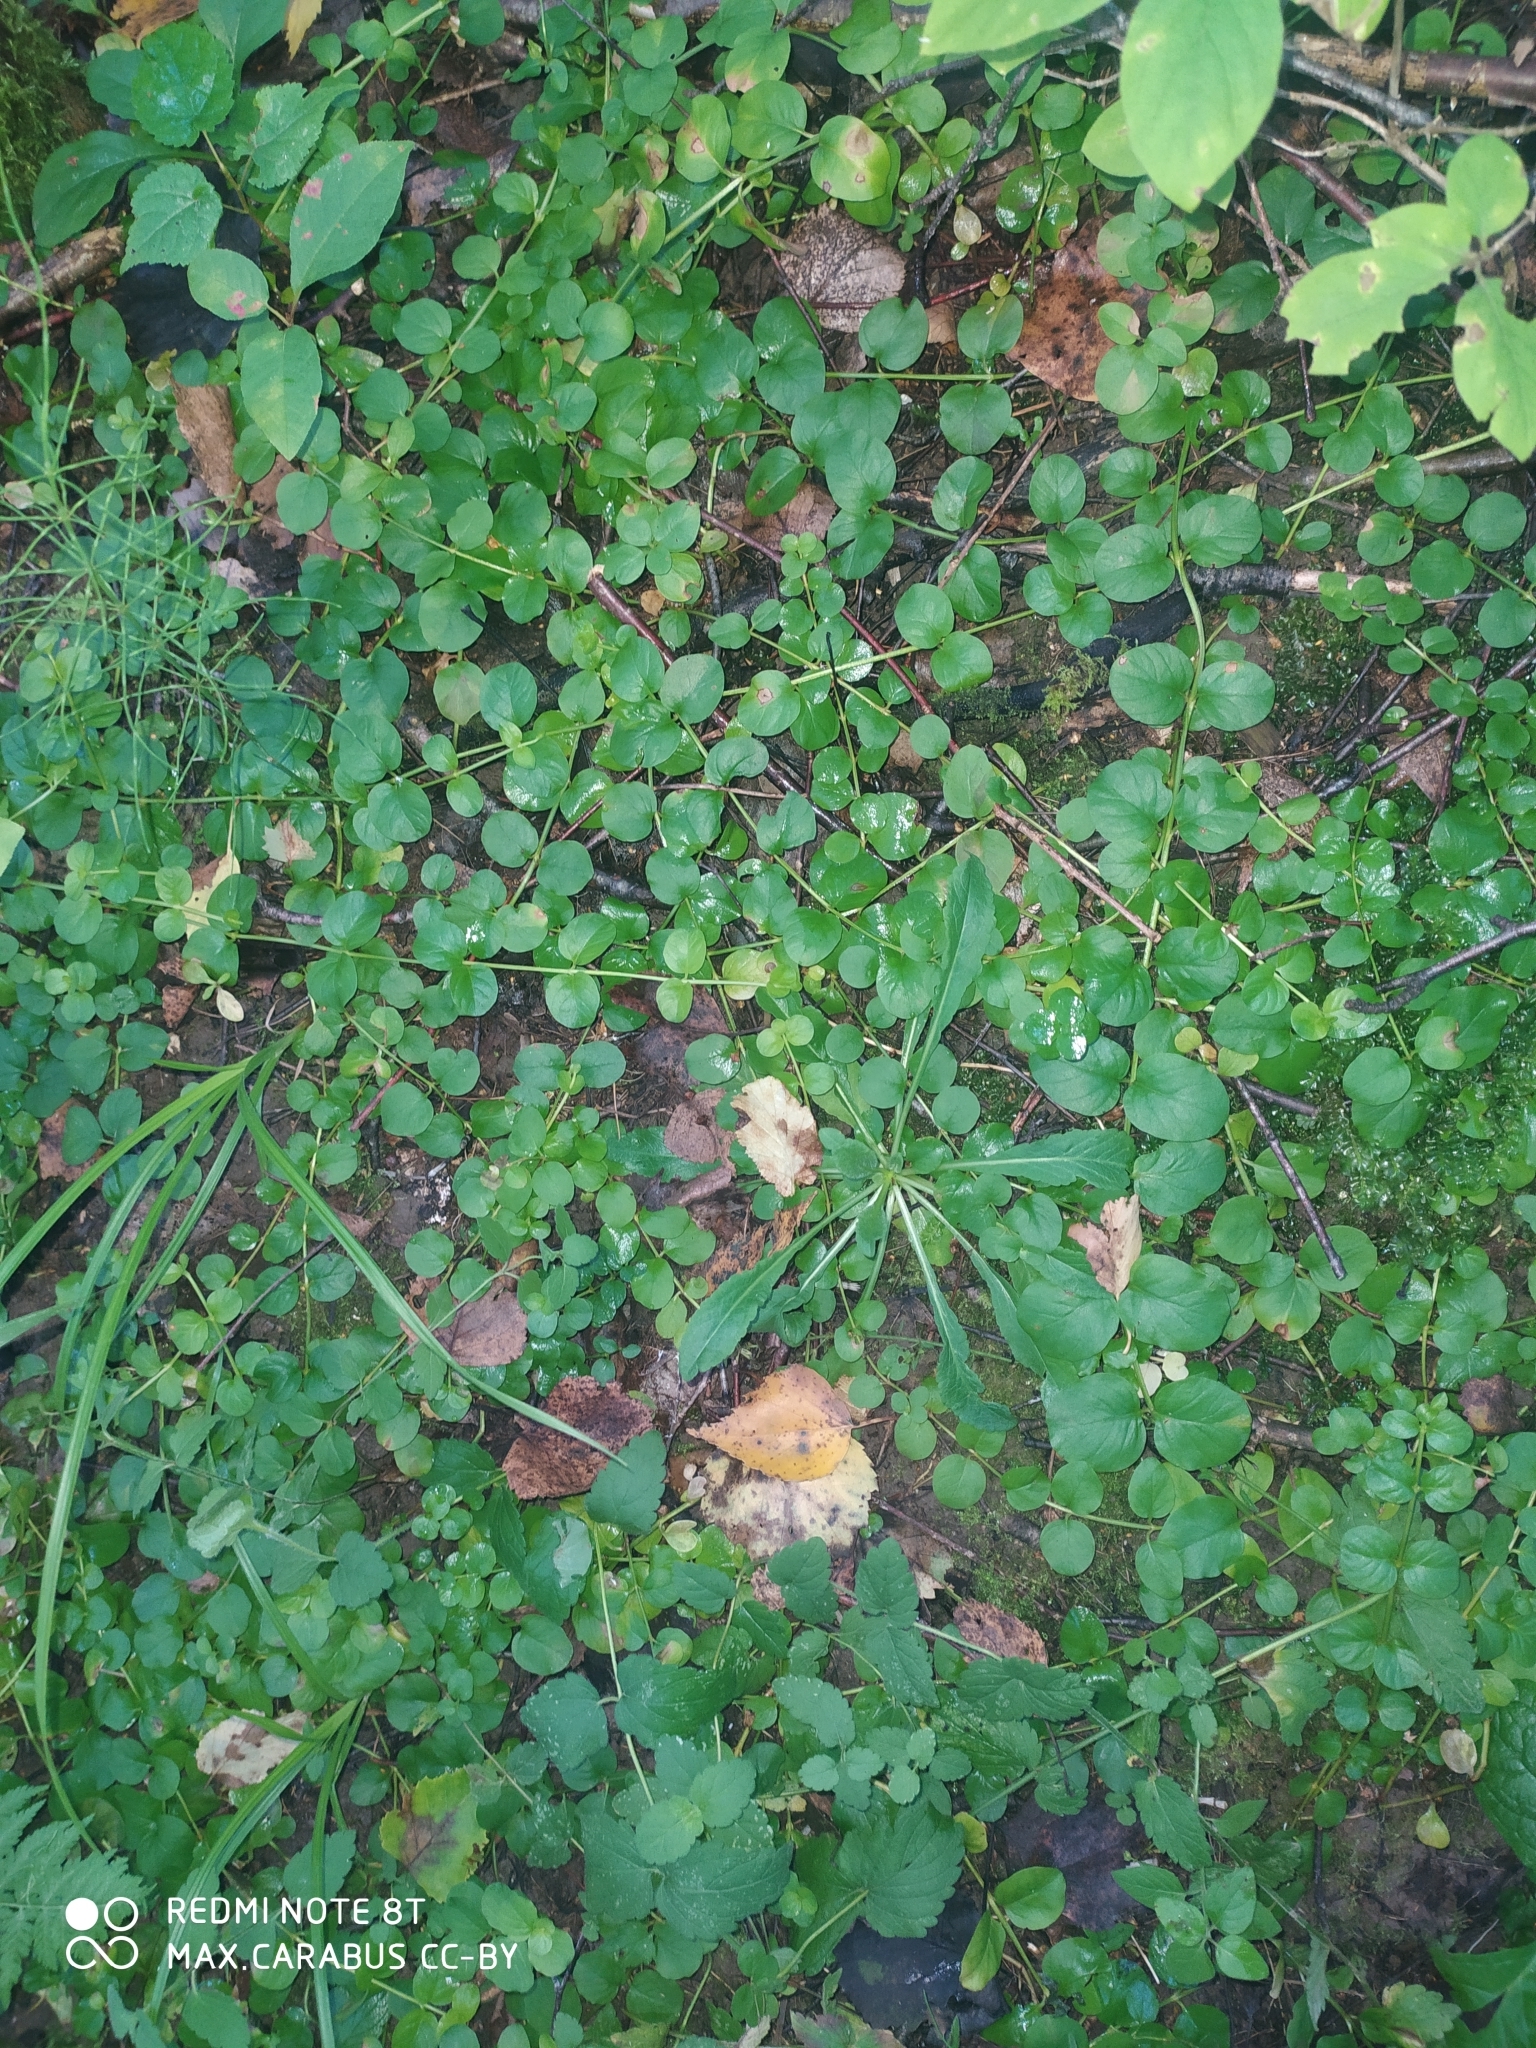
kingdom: Plantae
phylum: Tracheophyta
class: Magnoliopsida
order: Ericales
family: Primulaceae
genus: Lysimachia
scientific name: Lysimachia nummularia
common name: Moneywort
